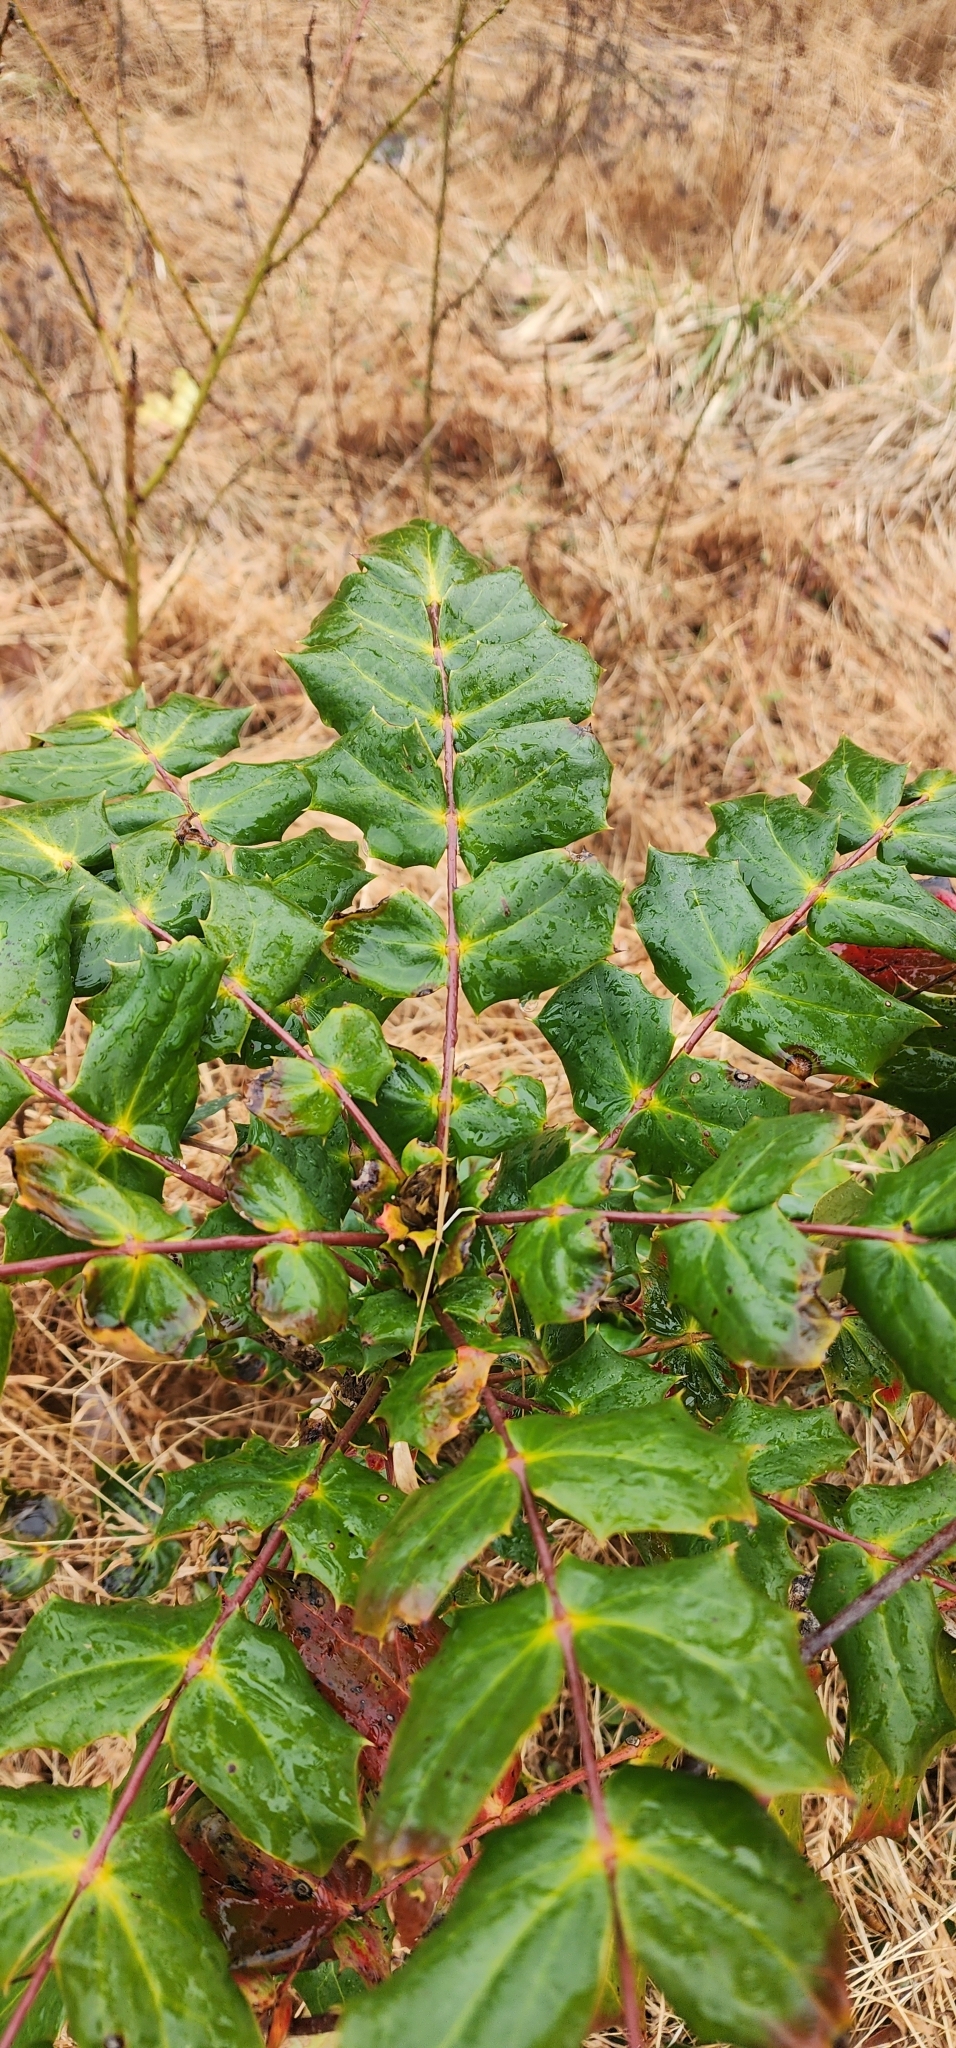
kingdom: Plantae
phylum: Tracheophyta
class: Magnoliopsida
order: Ranunculales
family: Berberidaceae
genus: Mahonia
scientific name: Mahonia bealei
